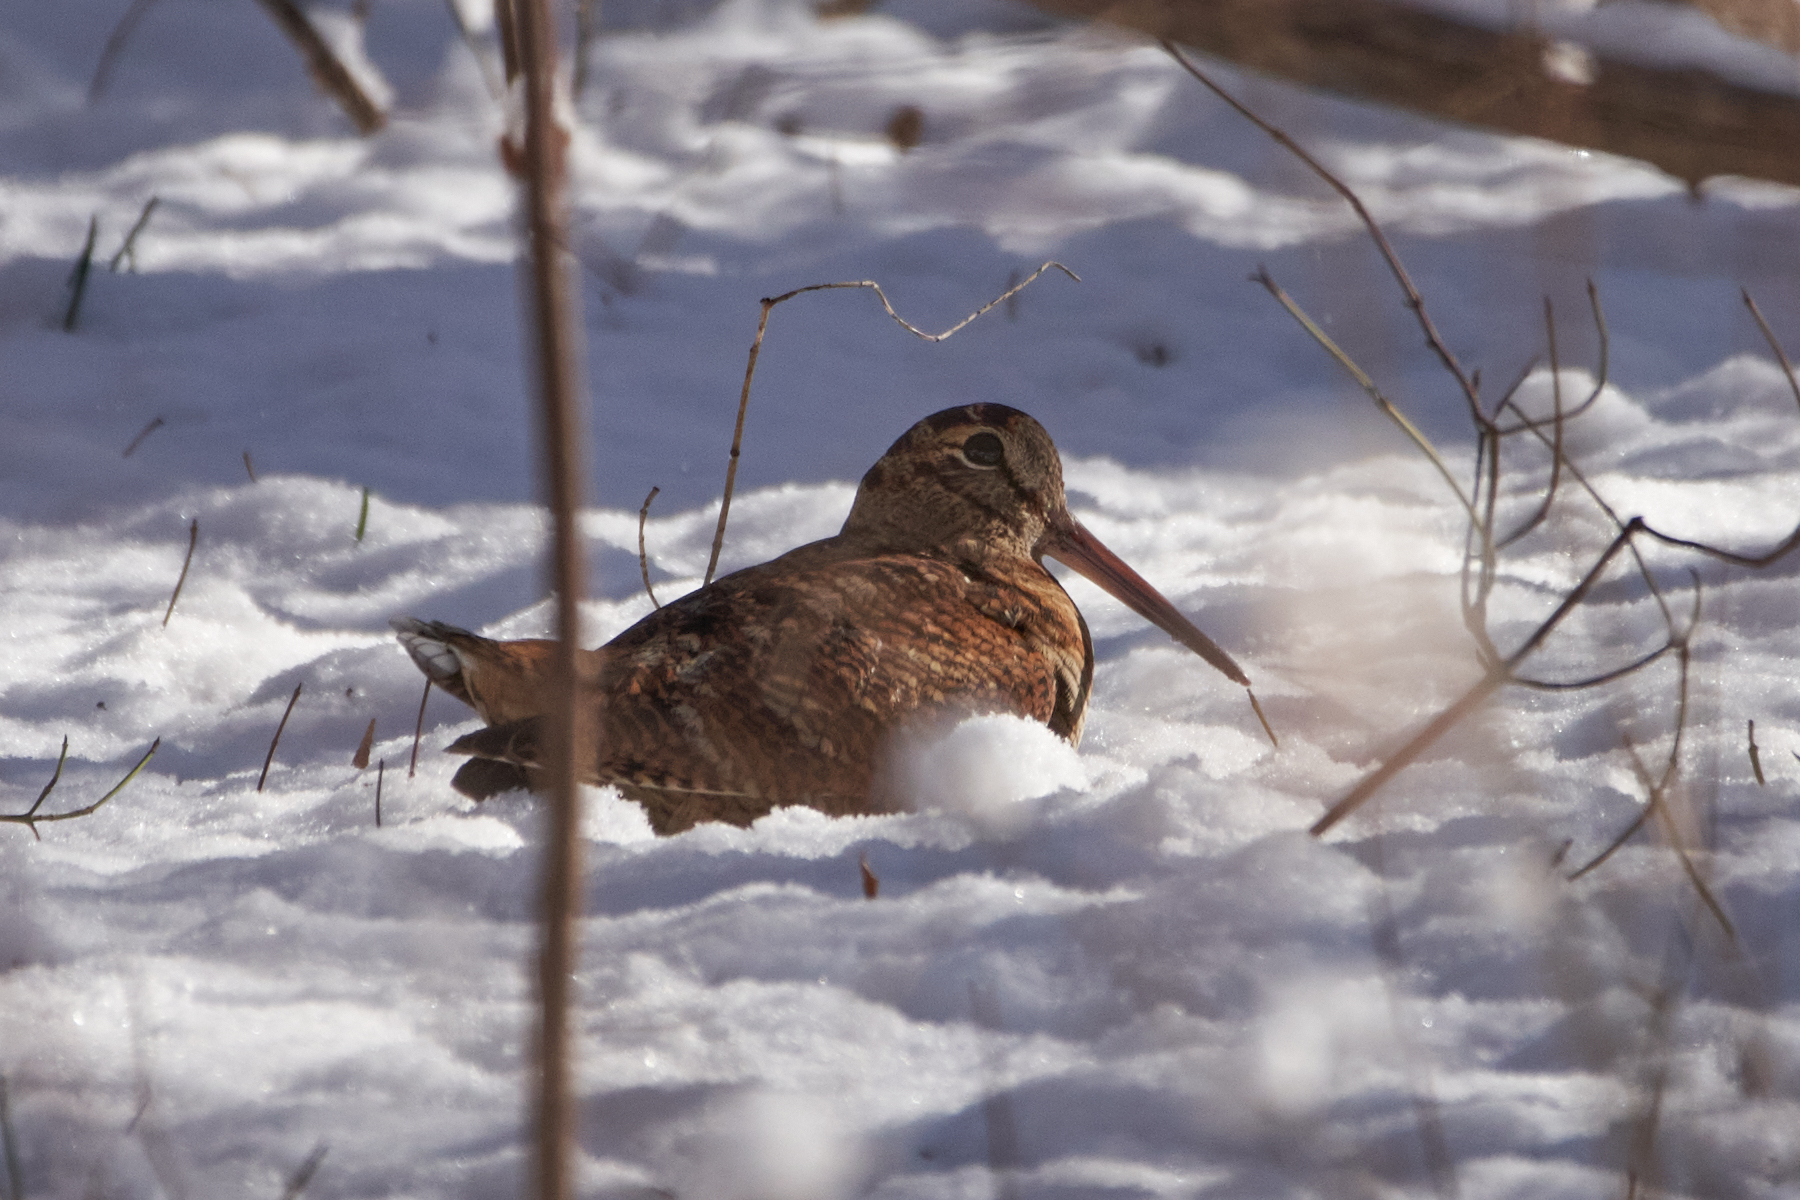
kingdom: Animalia
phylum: Chordata
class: Aves
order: Charadriiformes
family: Scolopacidae
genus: Scolopax
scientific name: Scolopax rusticola
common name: Eurasian woodcock
